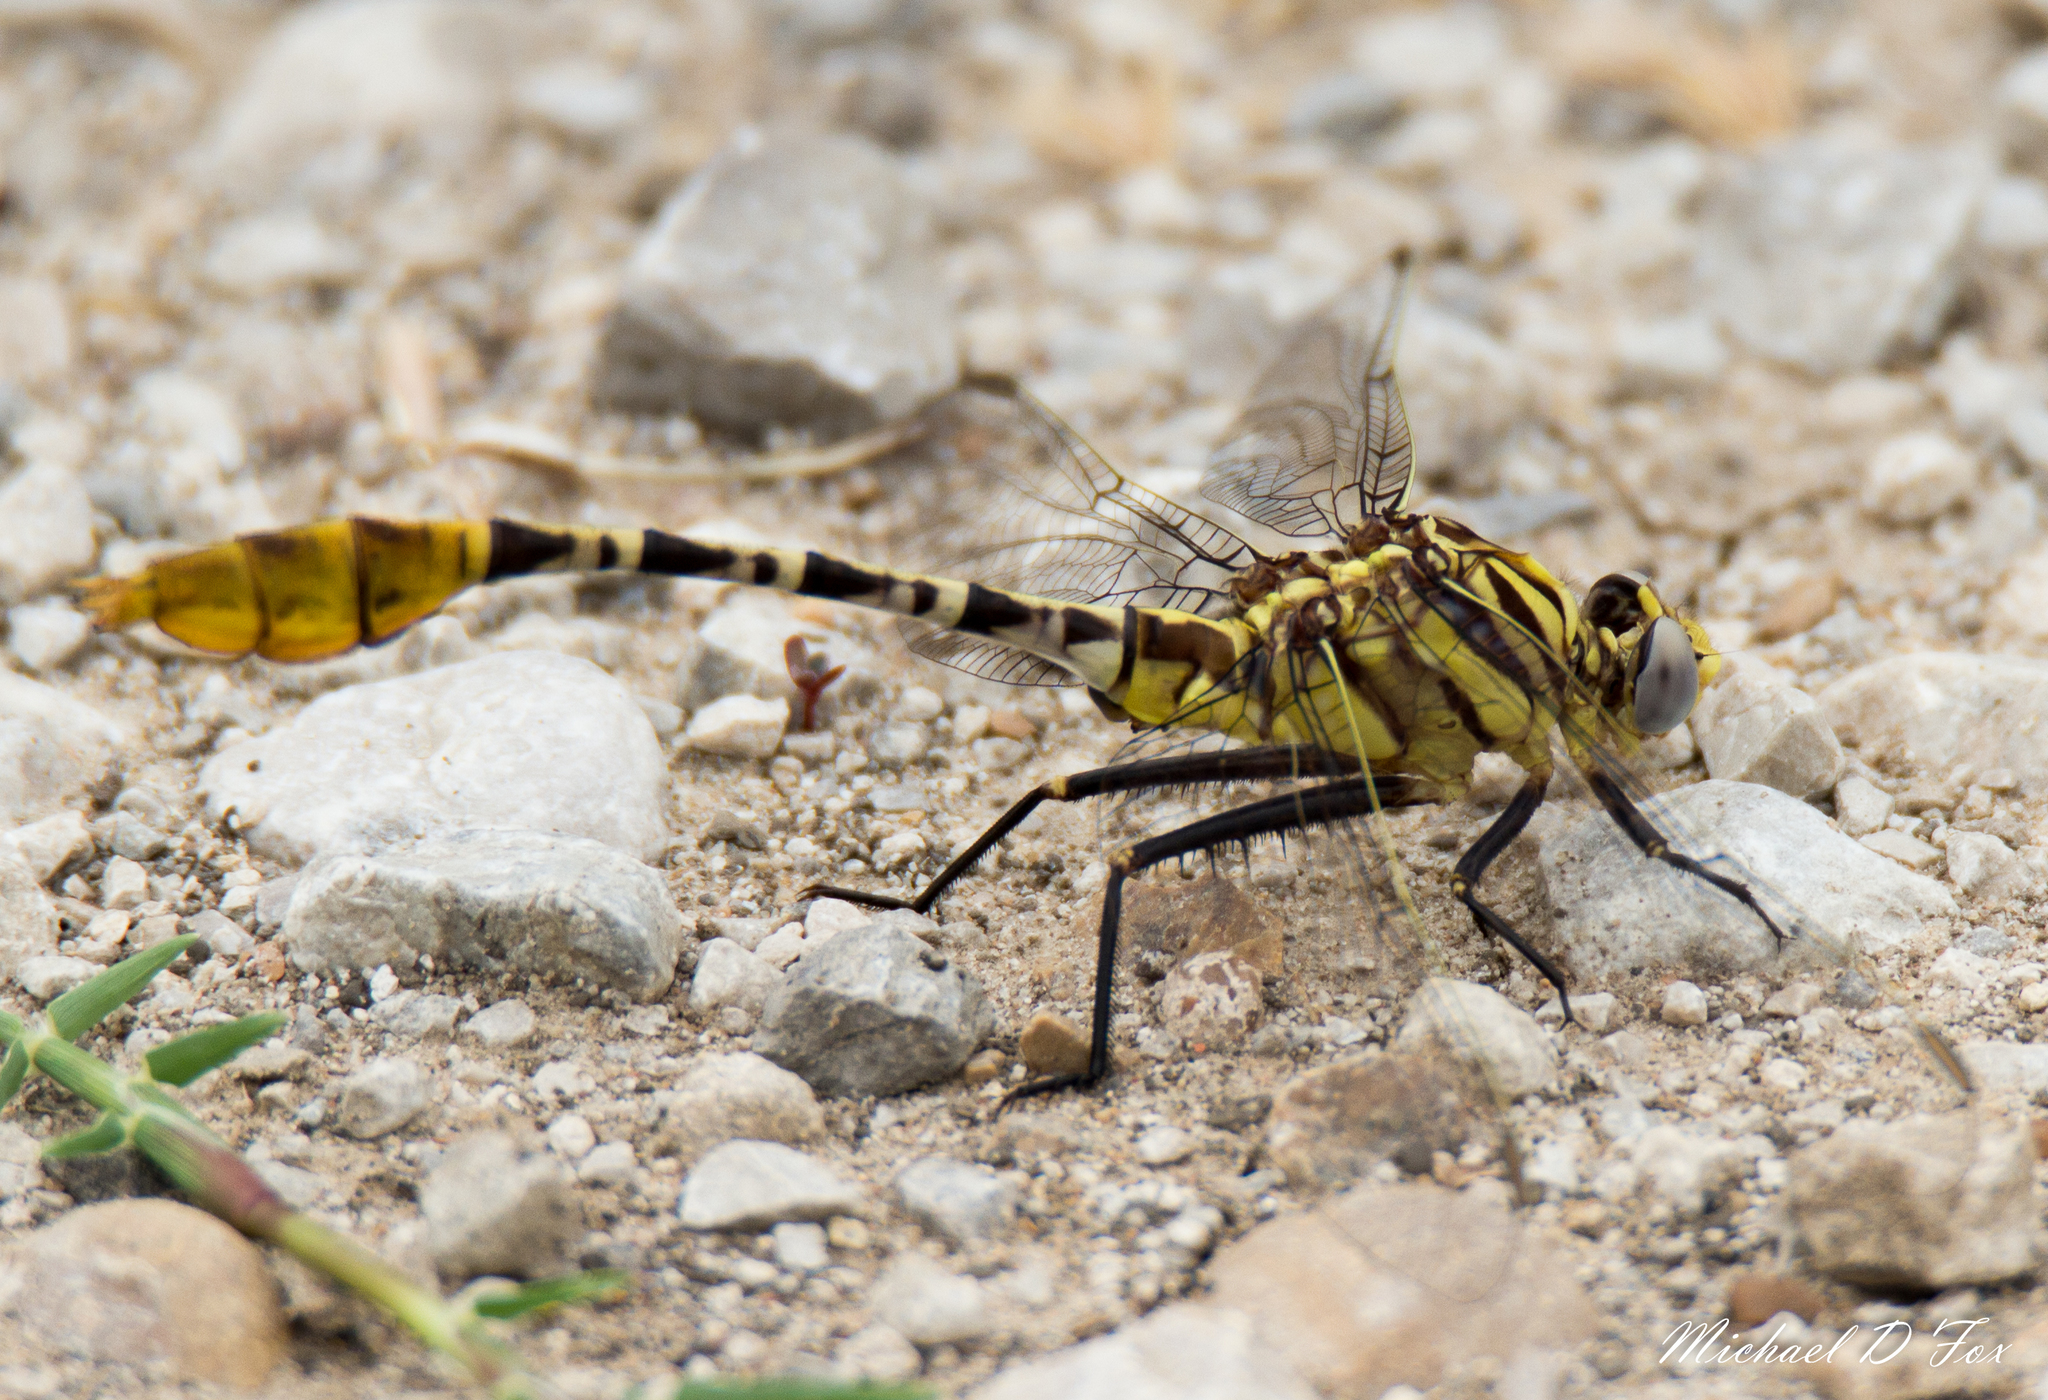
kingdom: Animalia
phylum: Arthropoda
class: Insecta
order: Odonata
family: Gomphidae
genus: Dromogomphus
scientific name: Dromogomphus spoliatus
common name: Flag-tailed spinyleg
